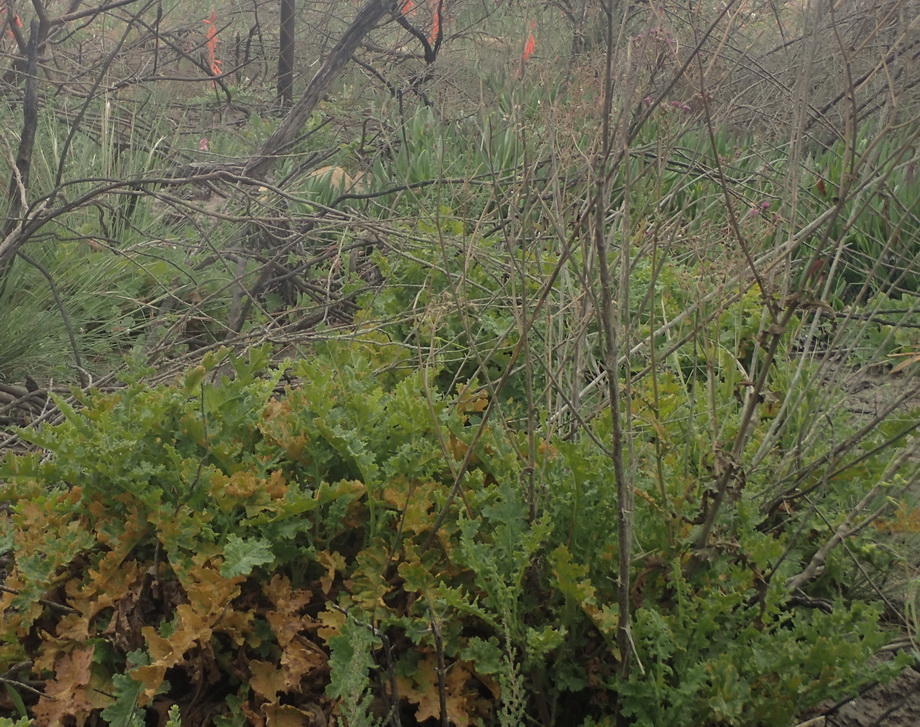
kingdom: Plantae
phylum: Tracheophyta
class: Magnoliopsida
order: Asterales
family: Asteraceae
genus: Senecio
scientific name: Senecio purpureus
